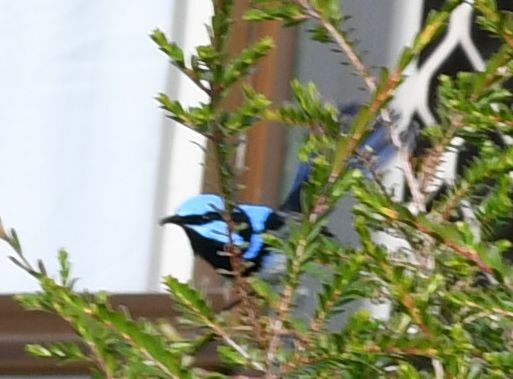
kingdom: Animalia
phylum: Chordata
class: Aves
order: Passeriformes
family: Maluridae
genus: Malurus
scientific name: Malurus cyaneus
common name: Superb fairywren
